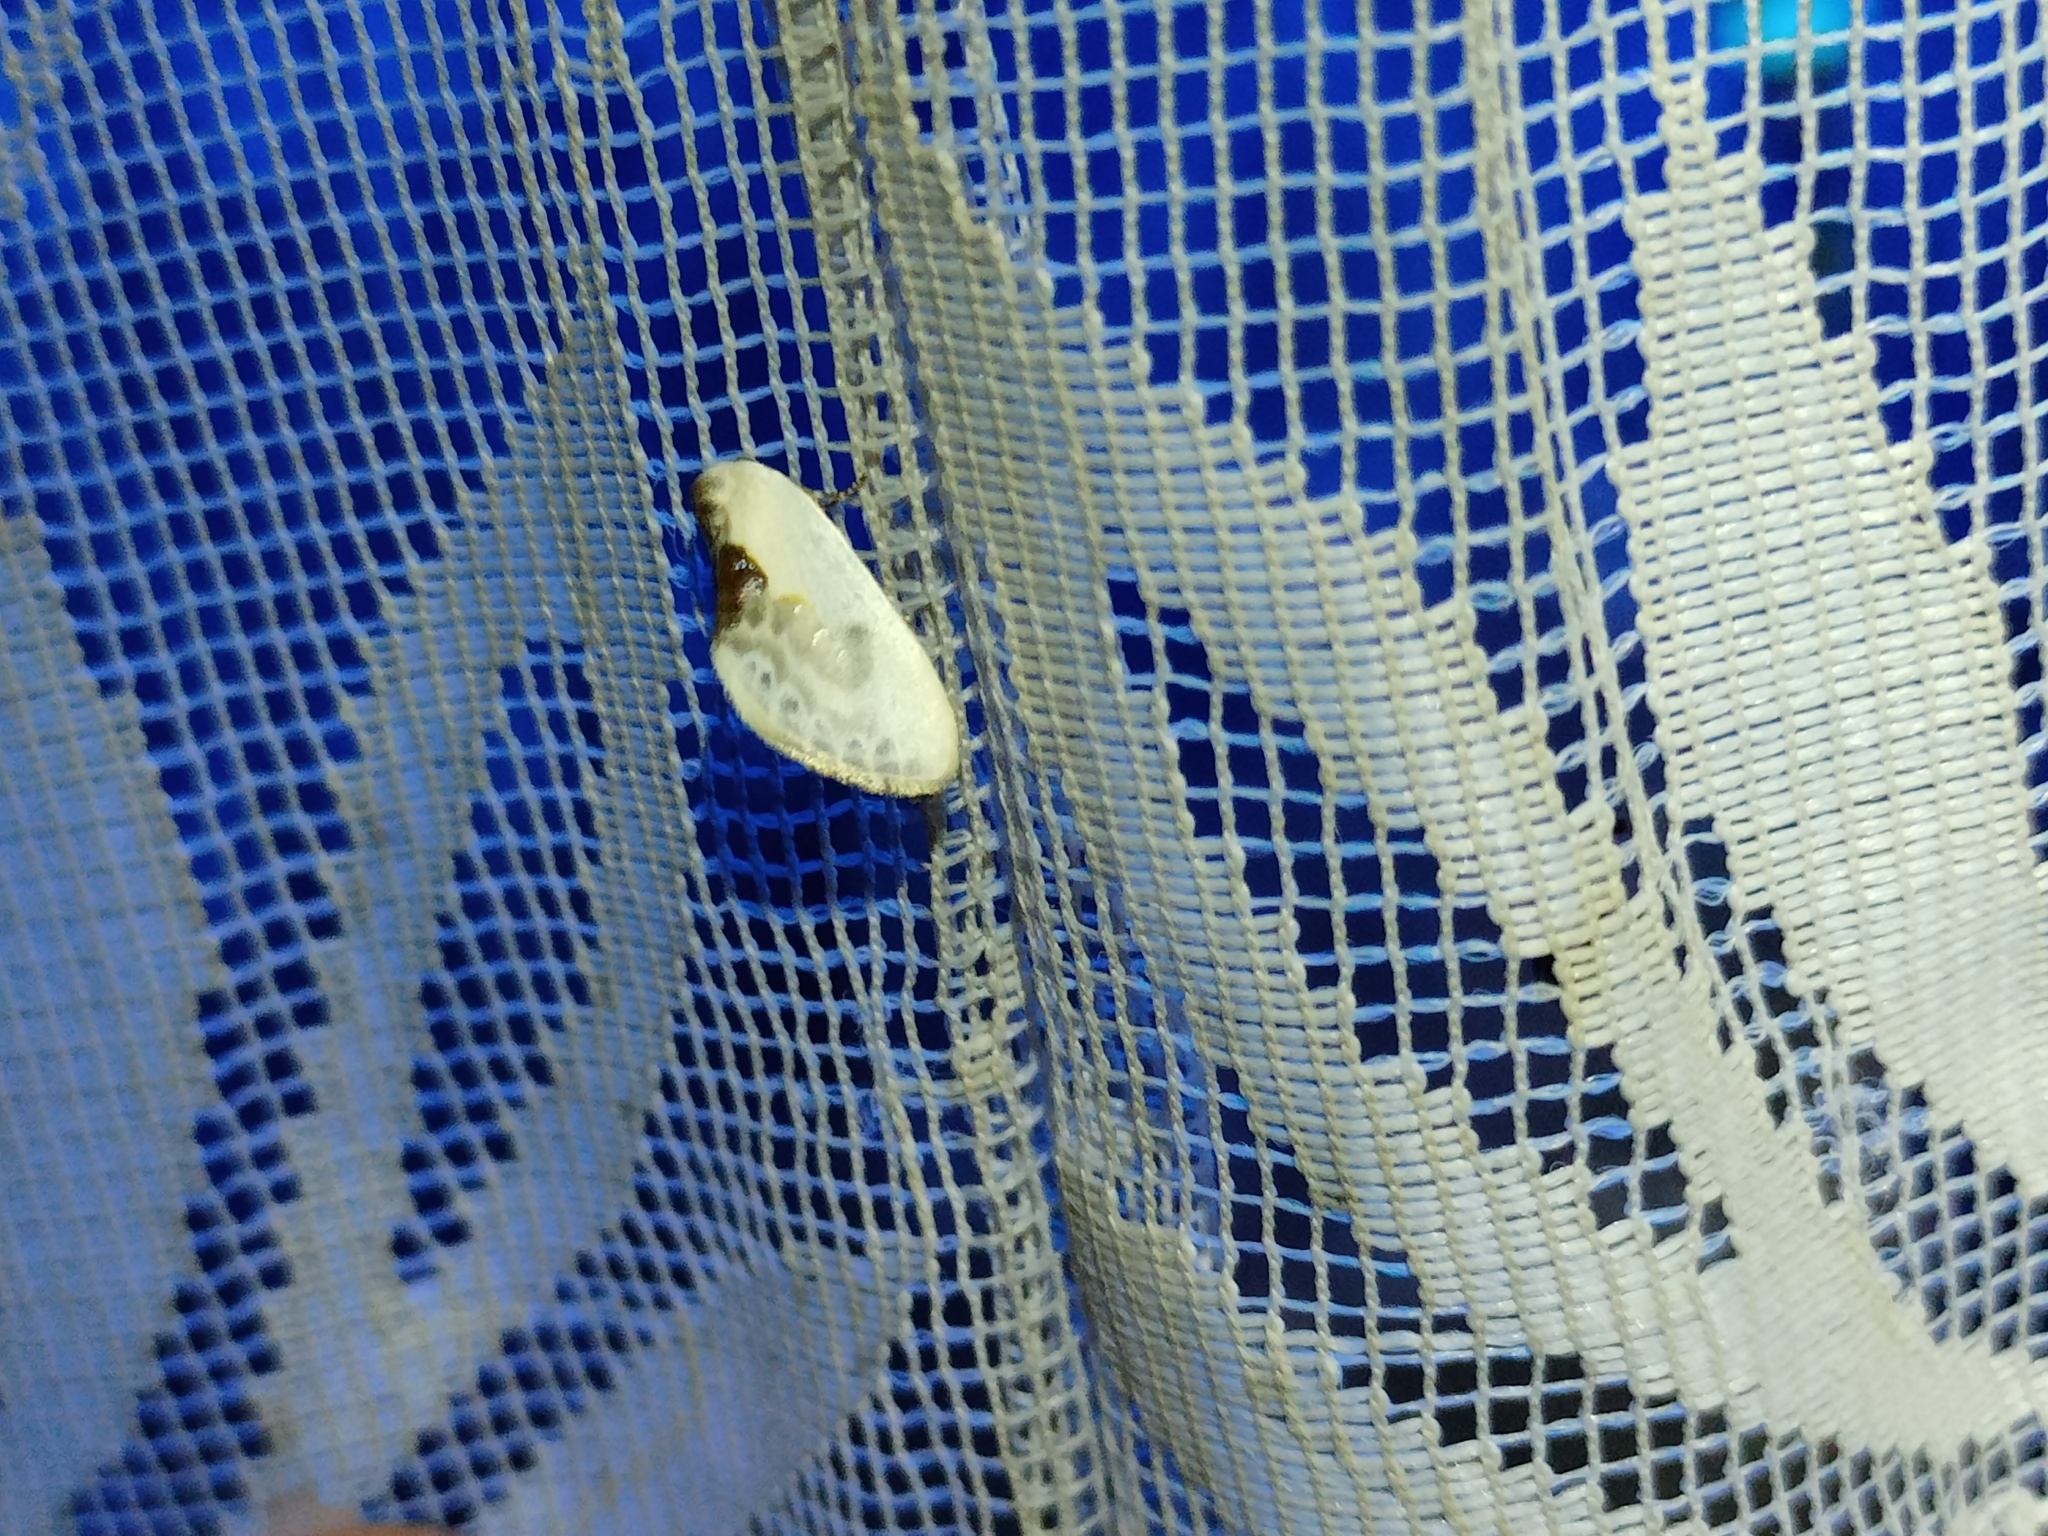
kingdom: Animalia
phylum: Arthropoda
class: Insecta
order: Lepidoptera
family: Drepanidae
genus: Cilix
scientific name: Cilix glaucata
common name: Chinese character
